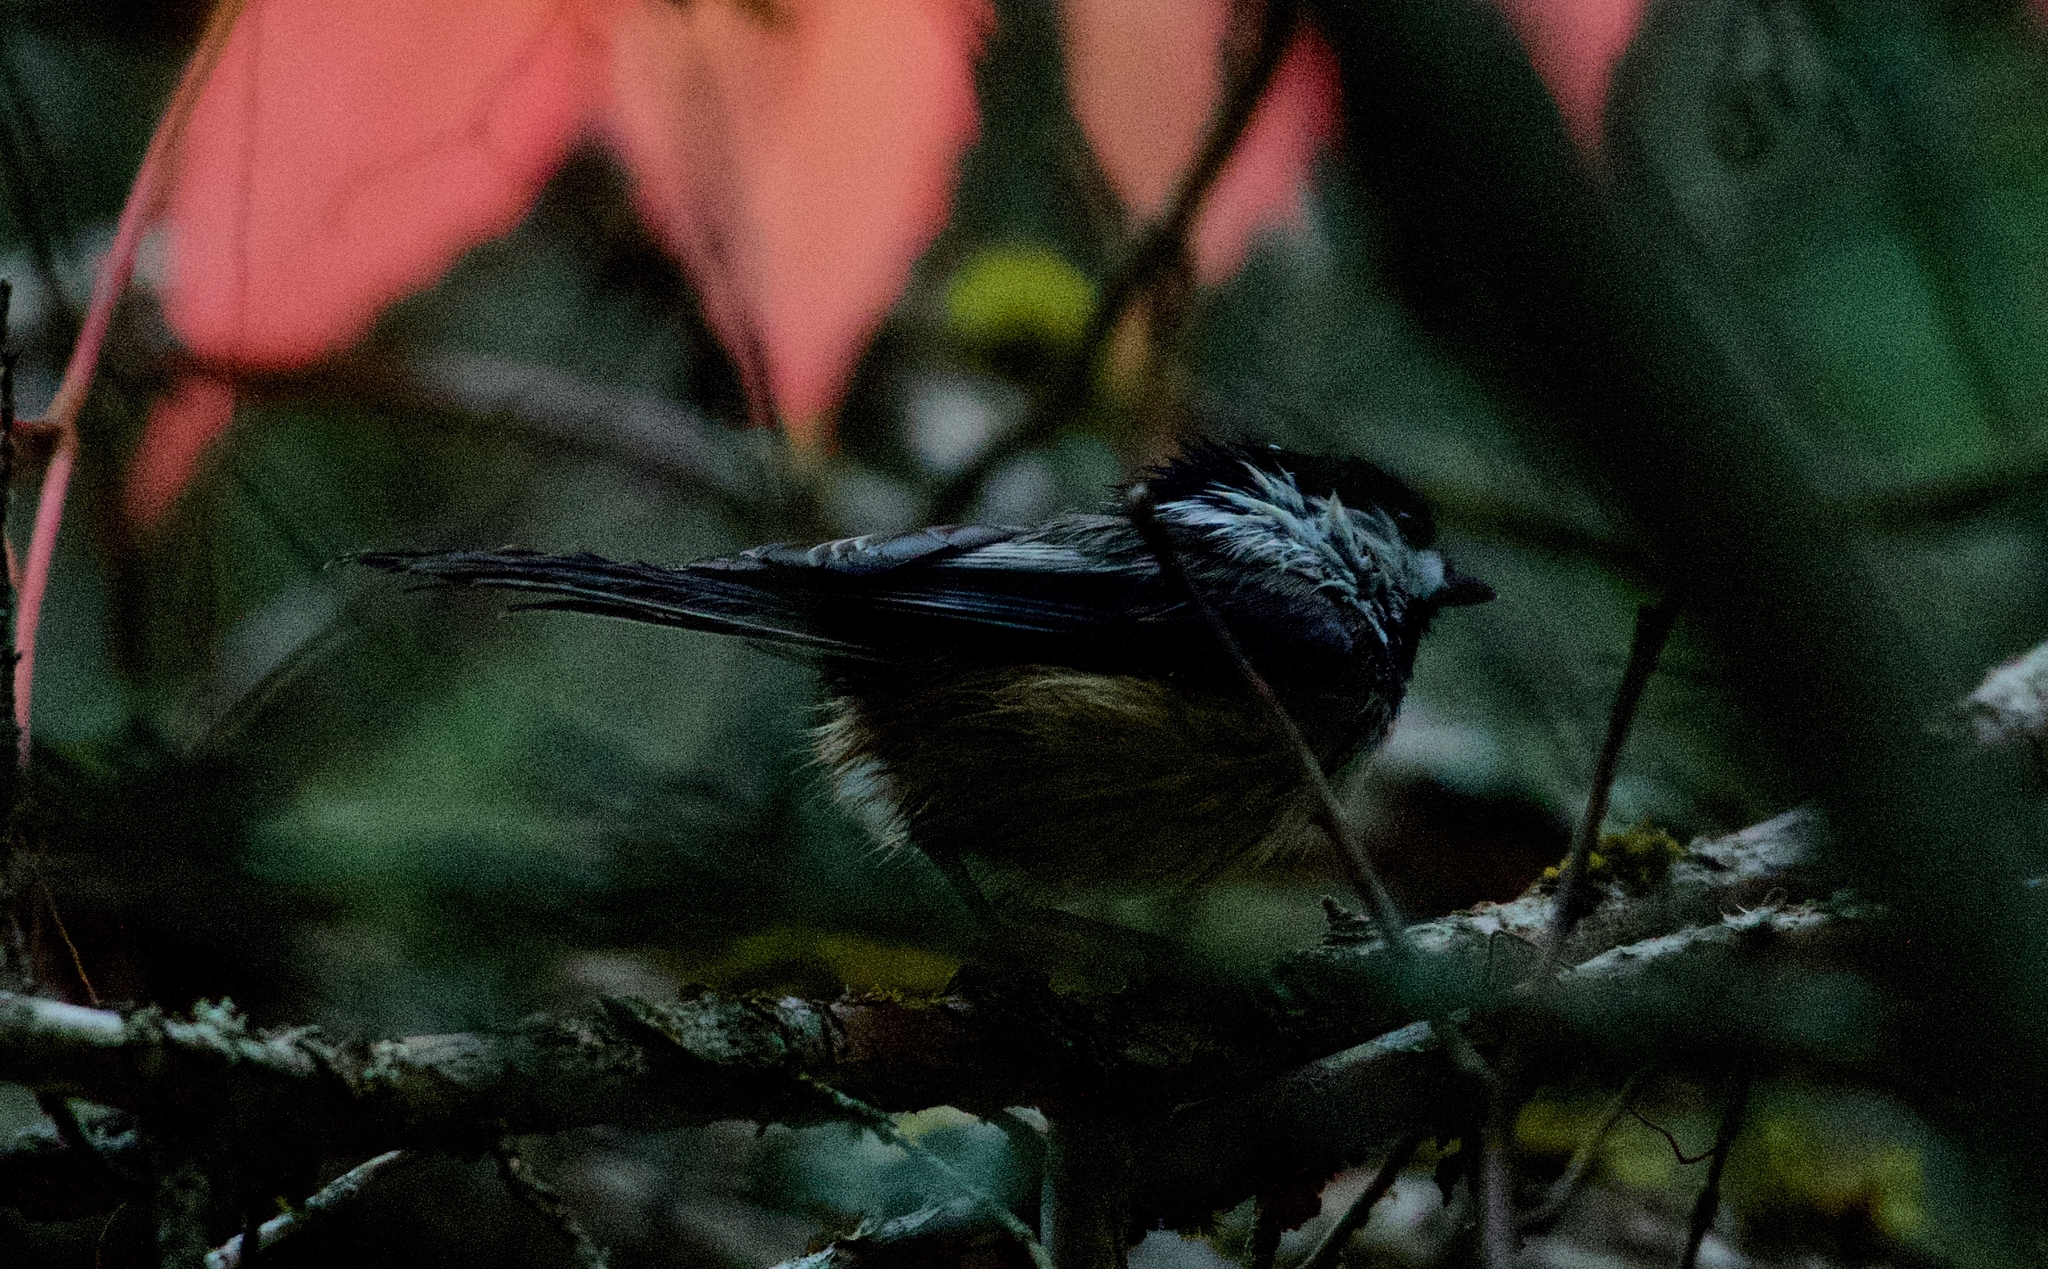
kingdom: Animalia
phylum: Chordata
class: Aves
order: Passeriformes
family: Paridae
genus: Poecile
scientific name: Poecile atricapillus
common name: Black-capped chickadee
